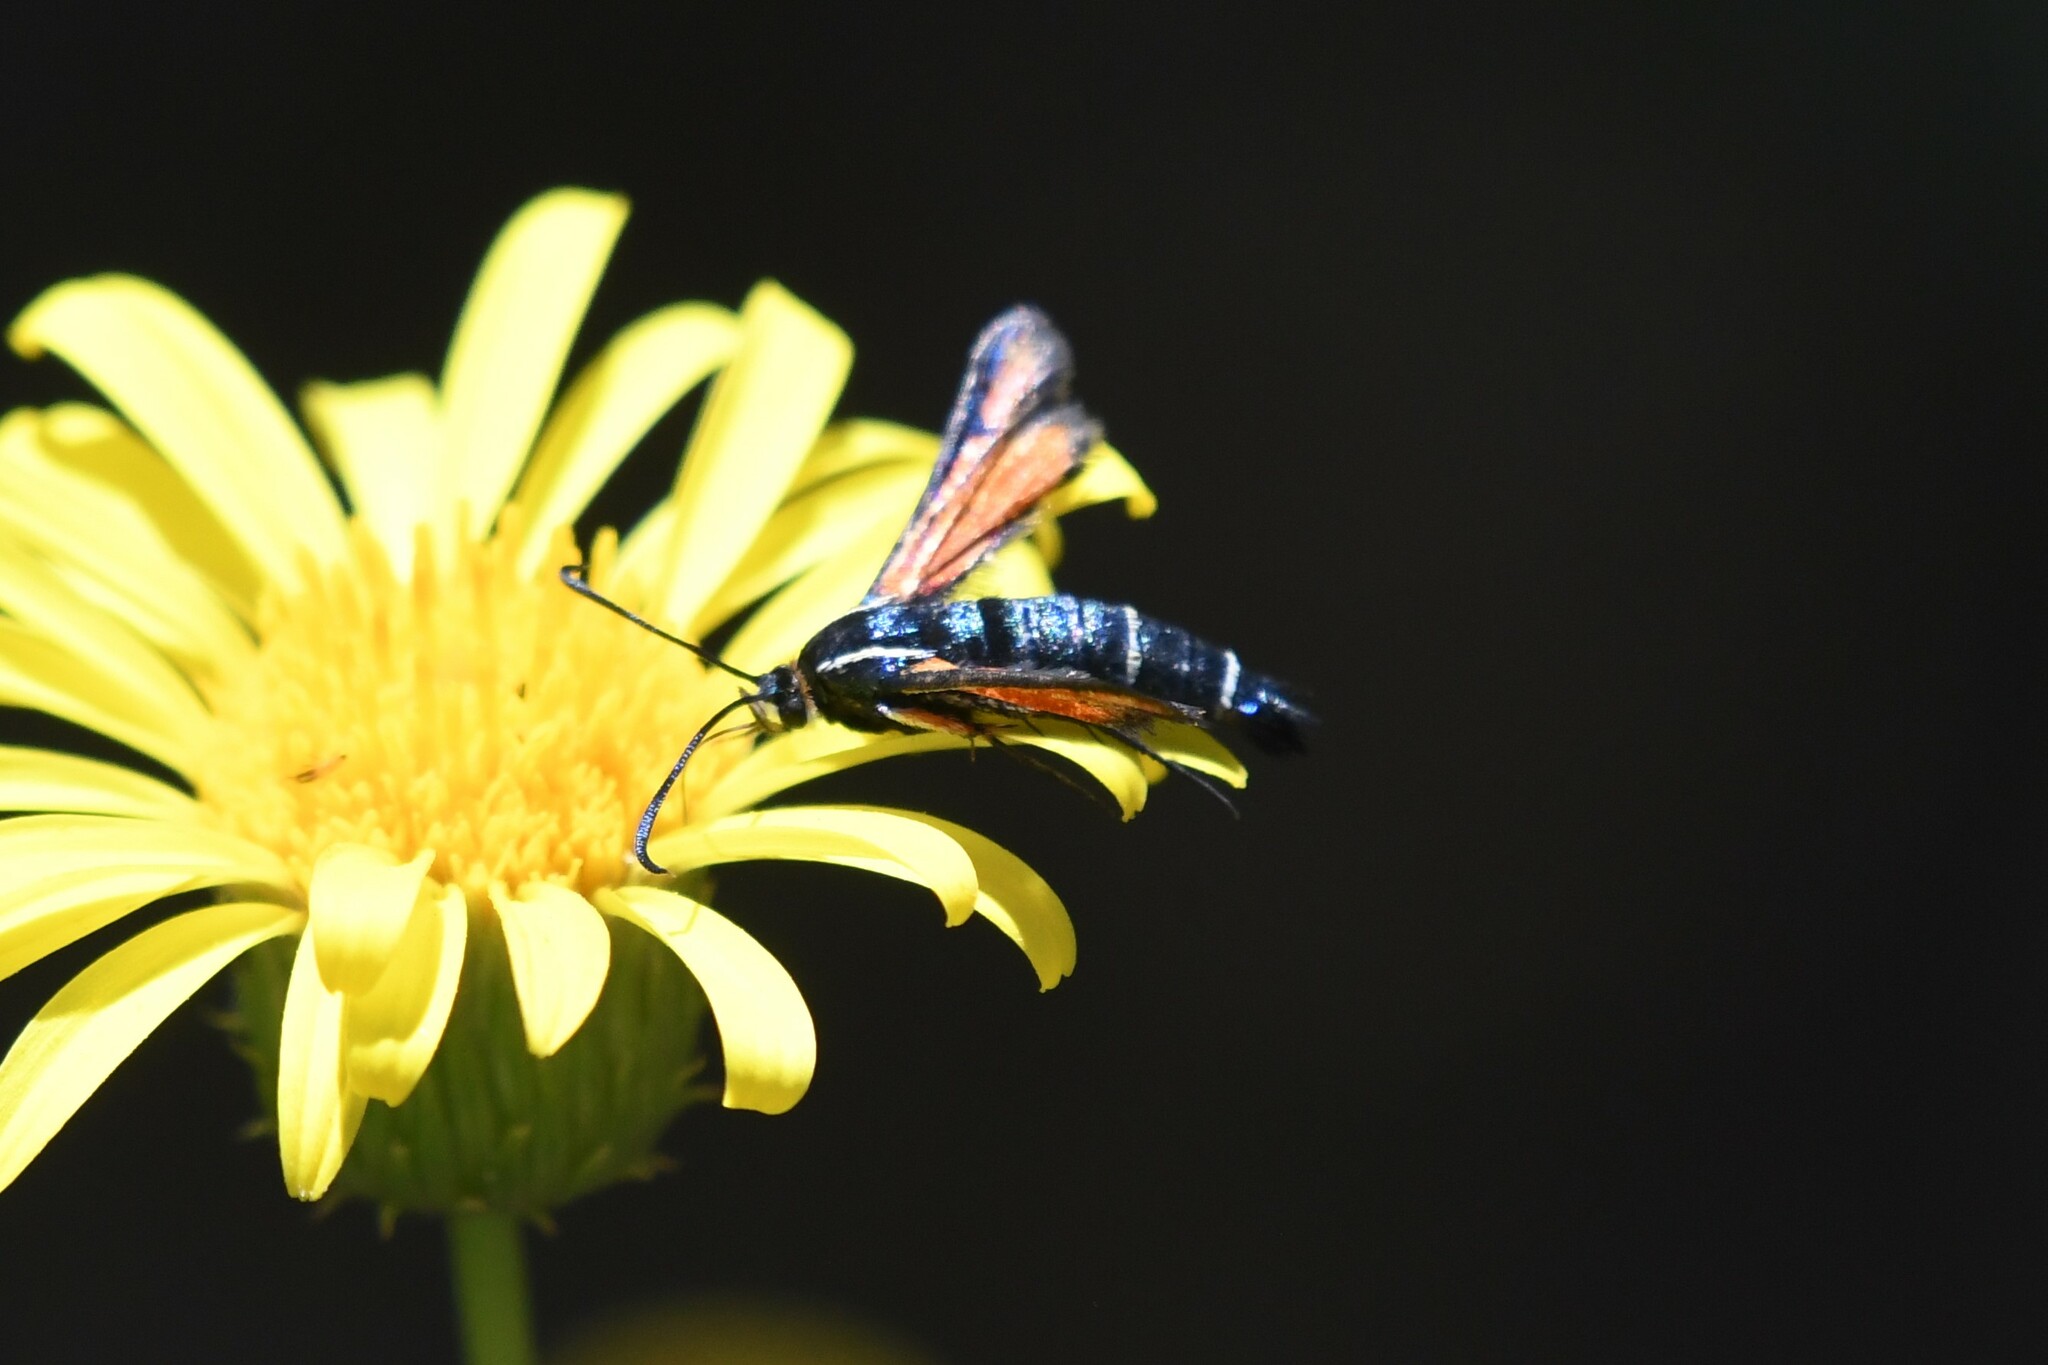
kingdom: Animalia
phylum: Arthropoda
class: Insecta
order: Lepidoptera
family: Sesiidae
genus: Carmenta
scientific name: Carmenta aurora
